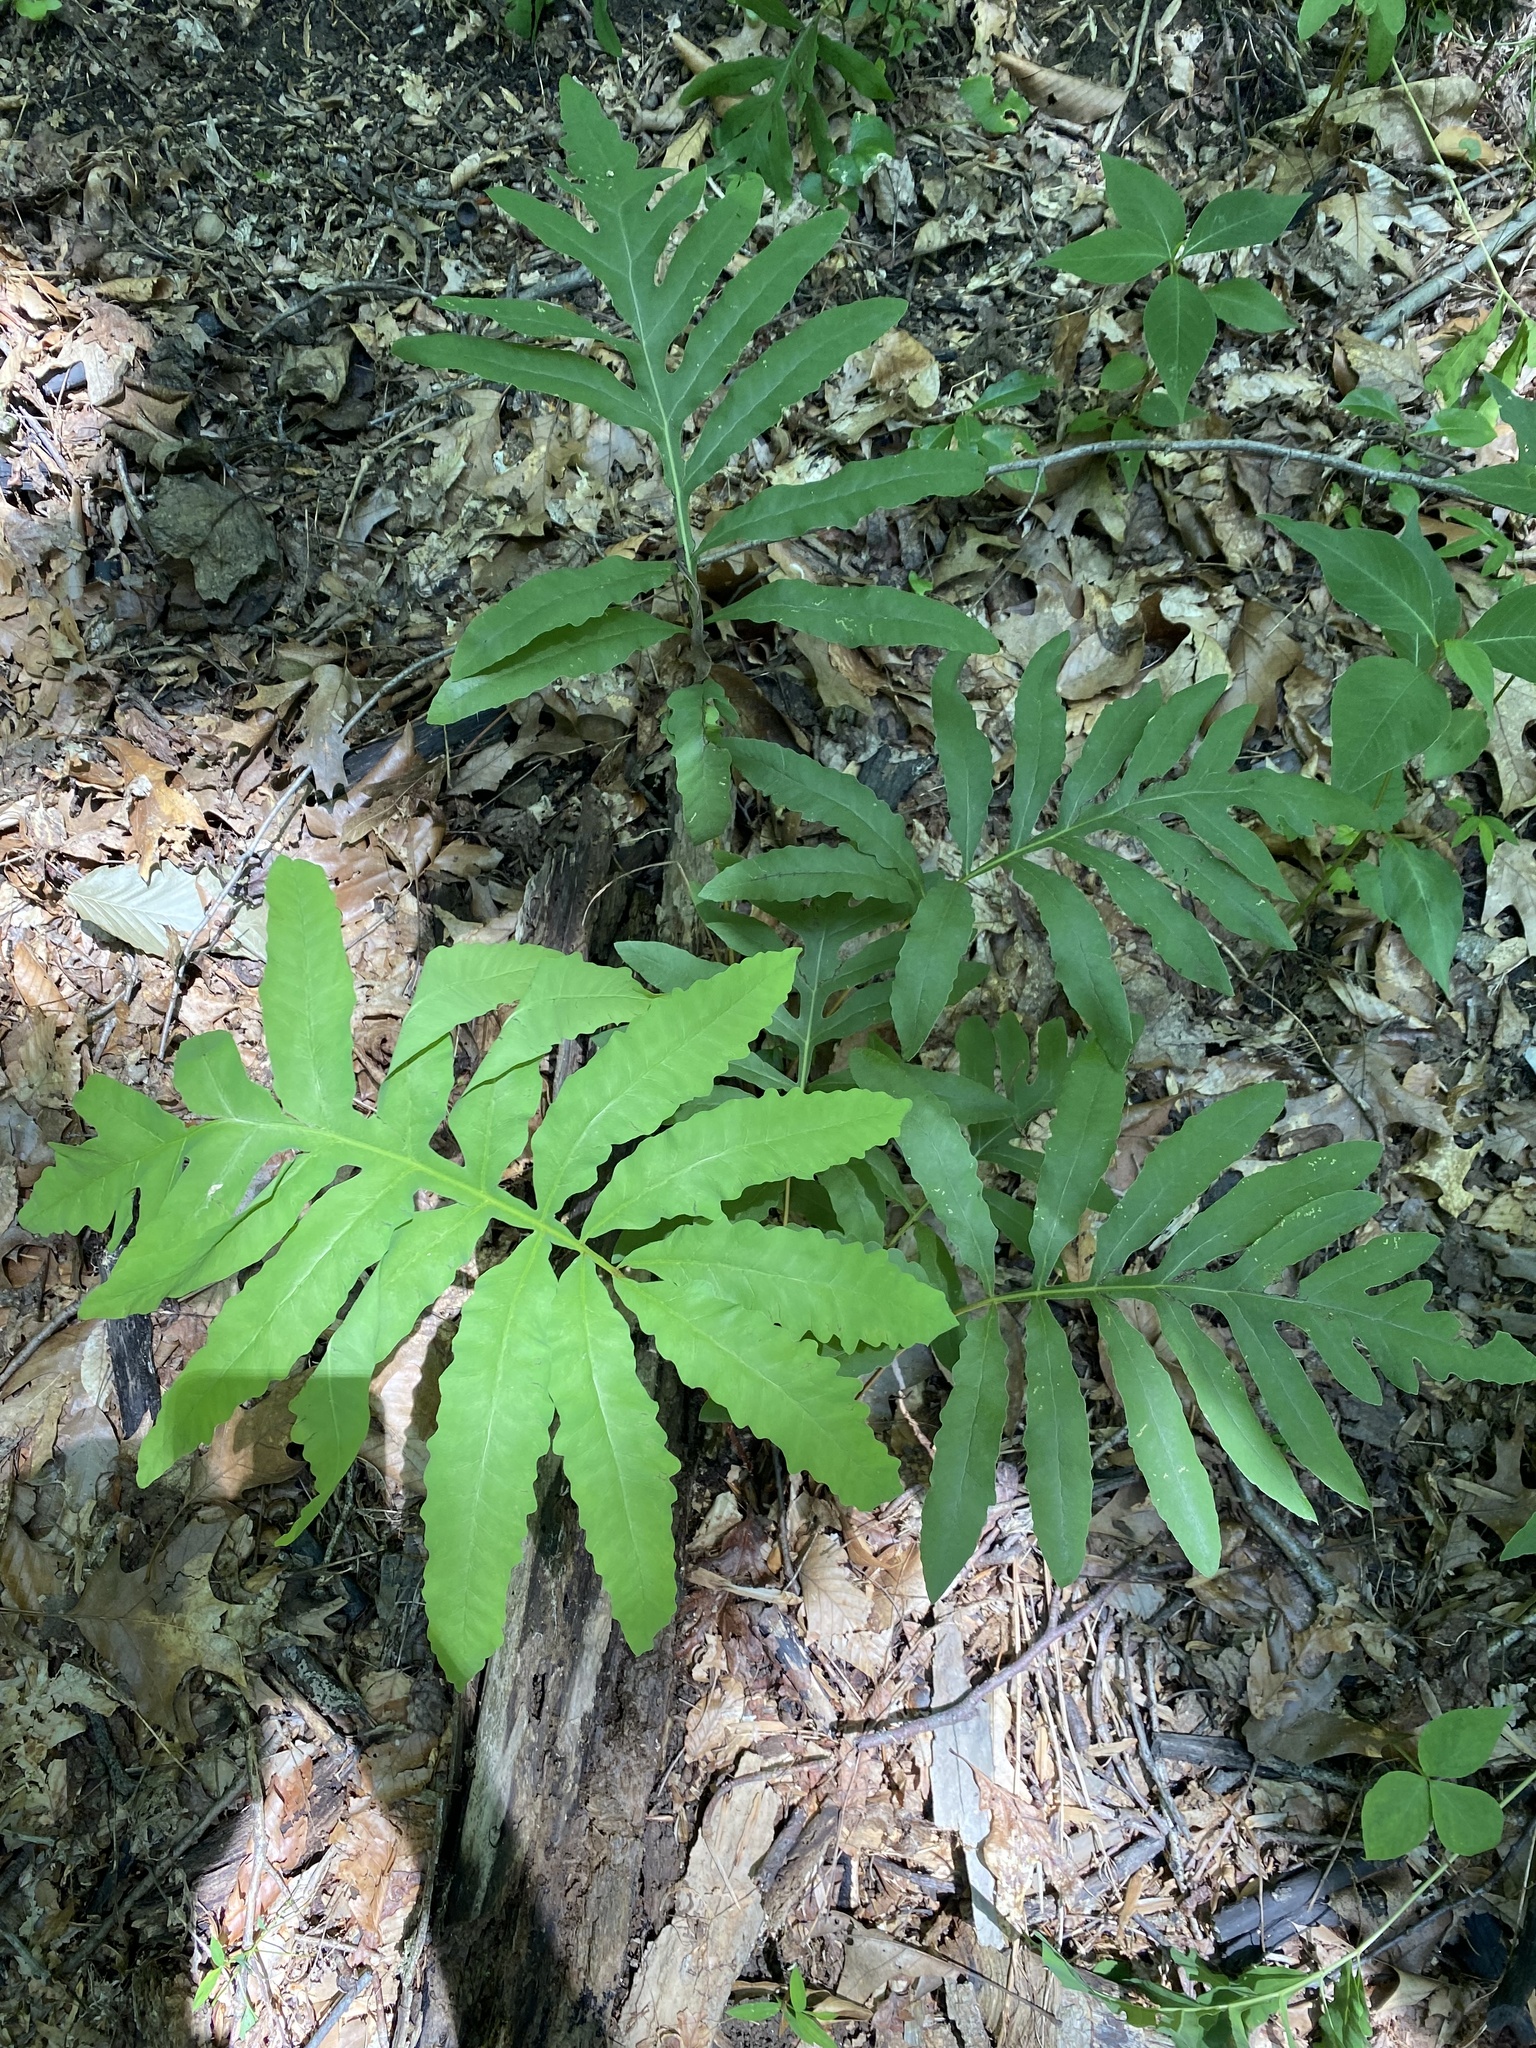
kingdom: Plantae
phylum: Tracheophyta
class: Polypodiopsida
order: Polypodiales
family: Onocleaceae
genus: Onoclea
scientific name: Onoclea sensibilis
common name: Sensitive fern
